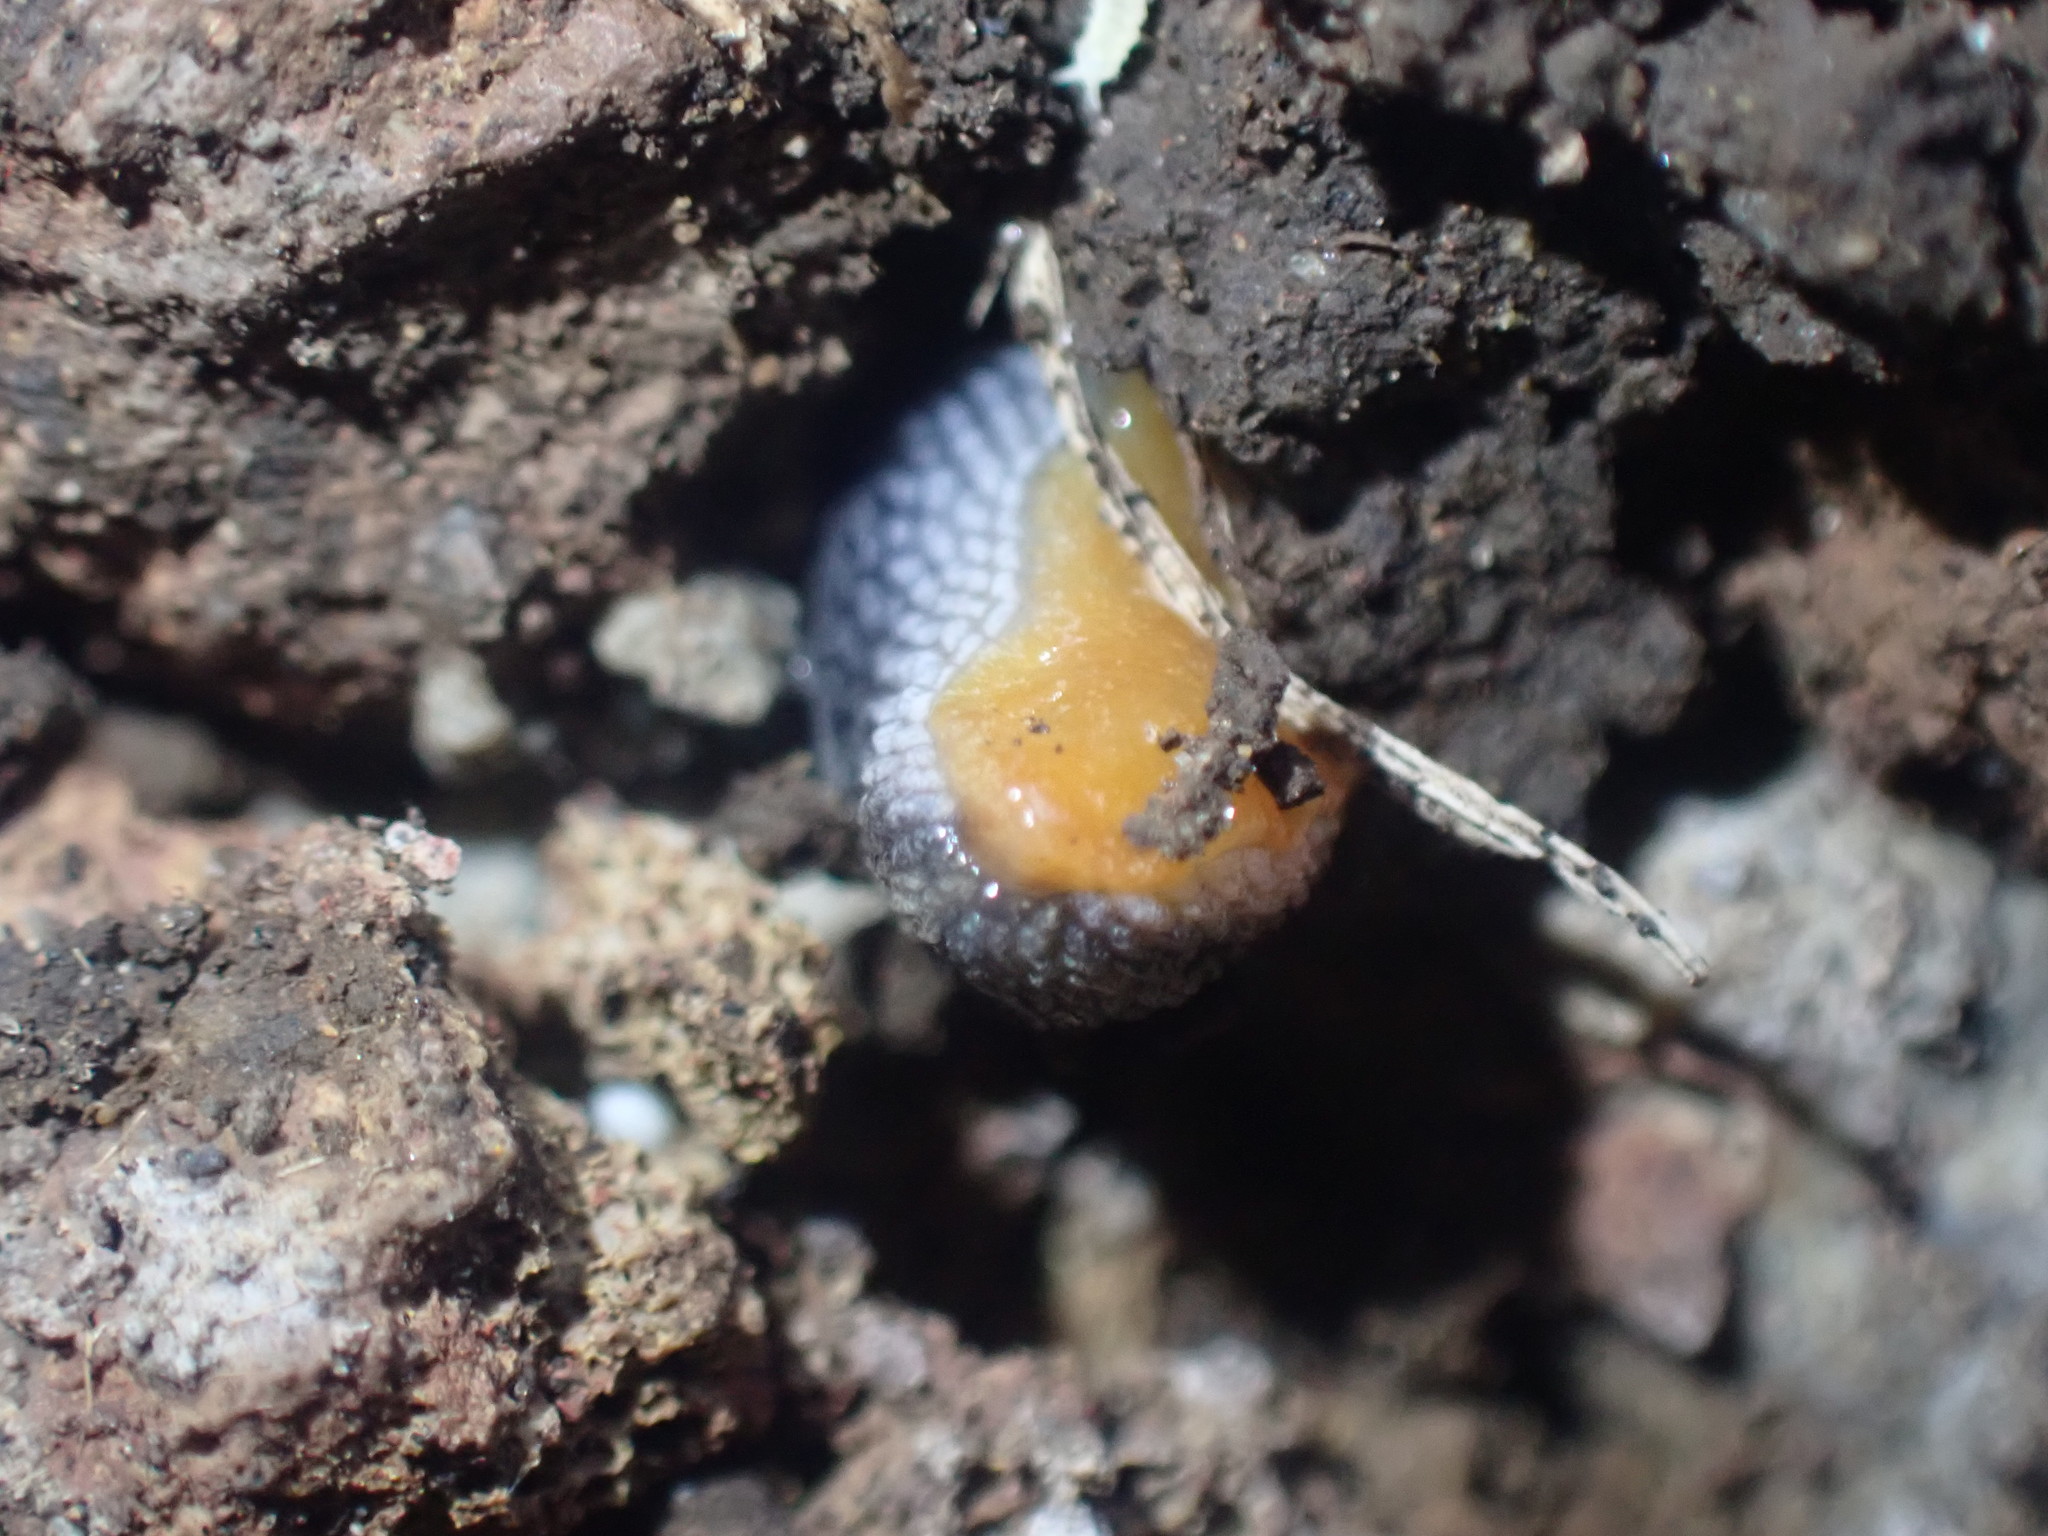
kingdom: Animalia
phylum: Mollusca
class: Gastropoda
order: Stylommatophora
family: Arionidae
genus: Kobeltia
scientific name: Kobeltia
